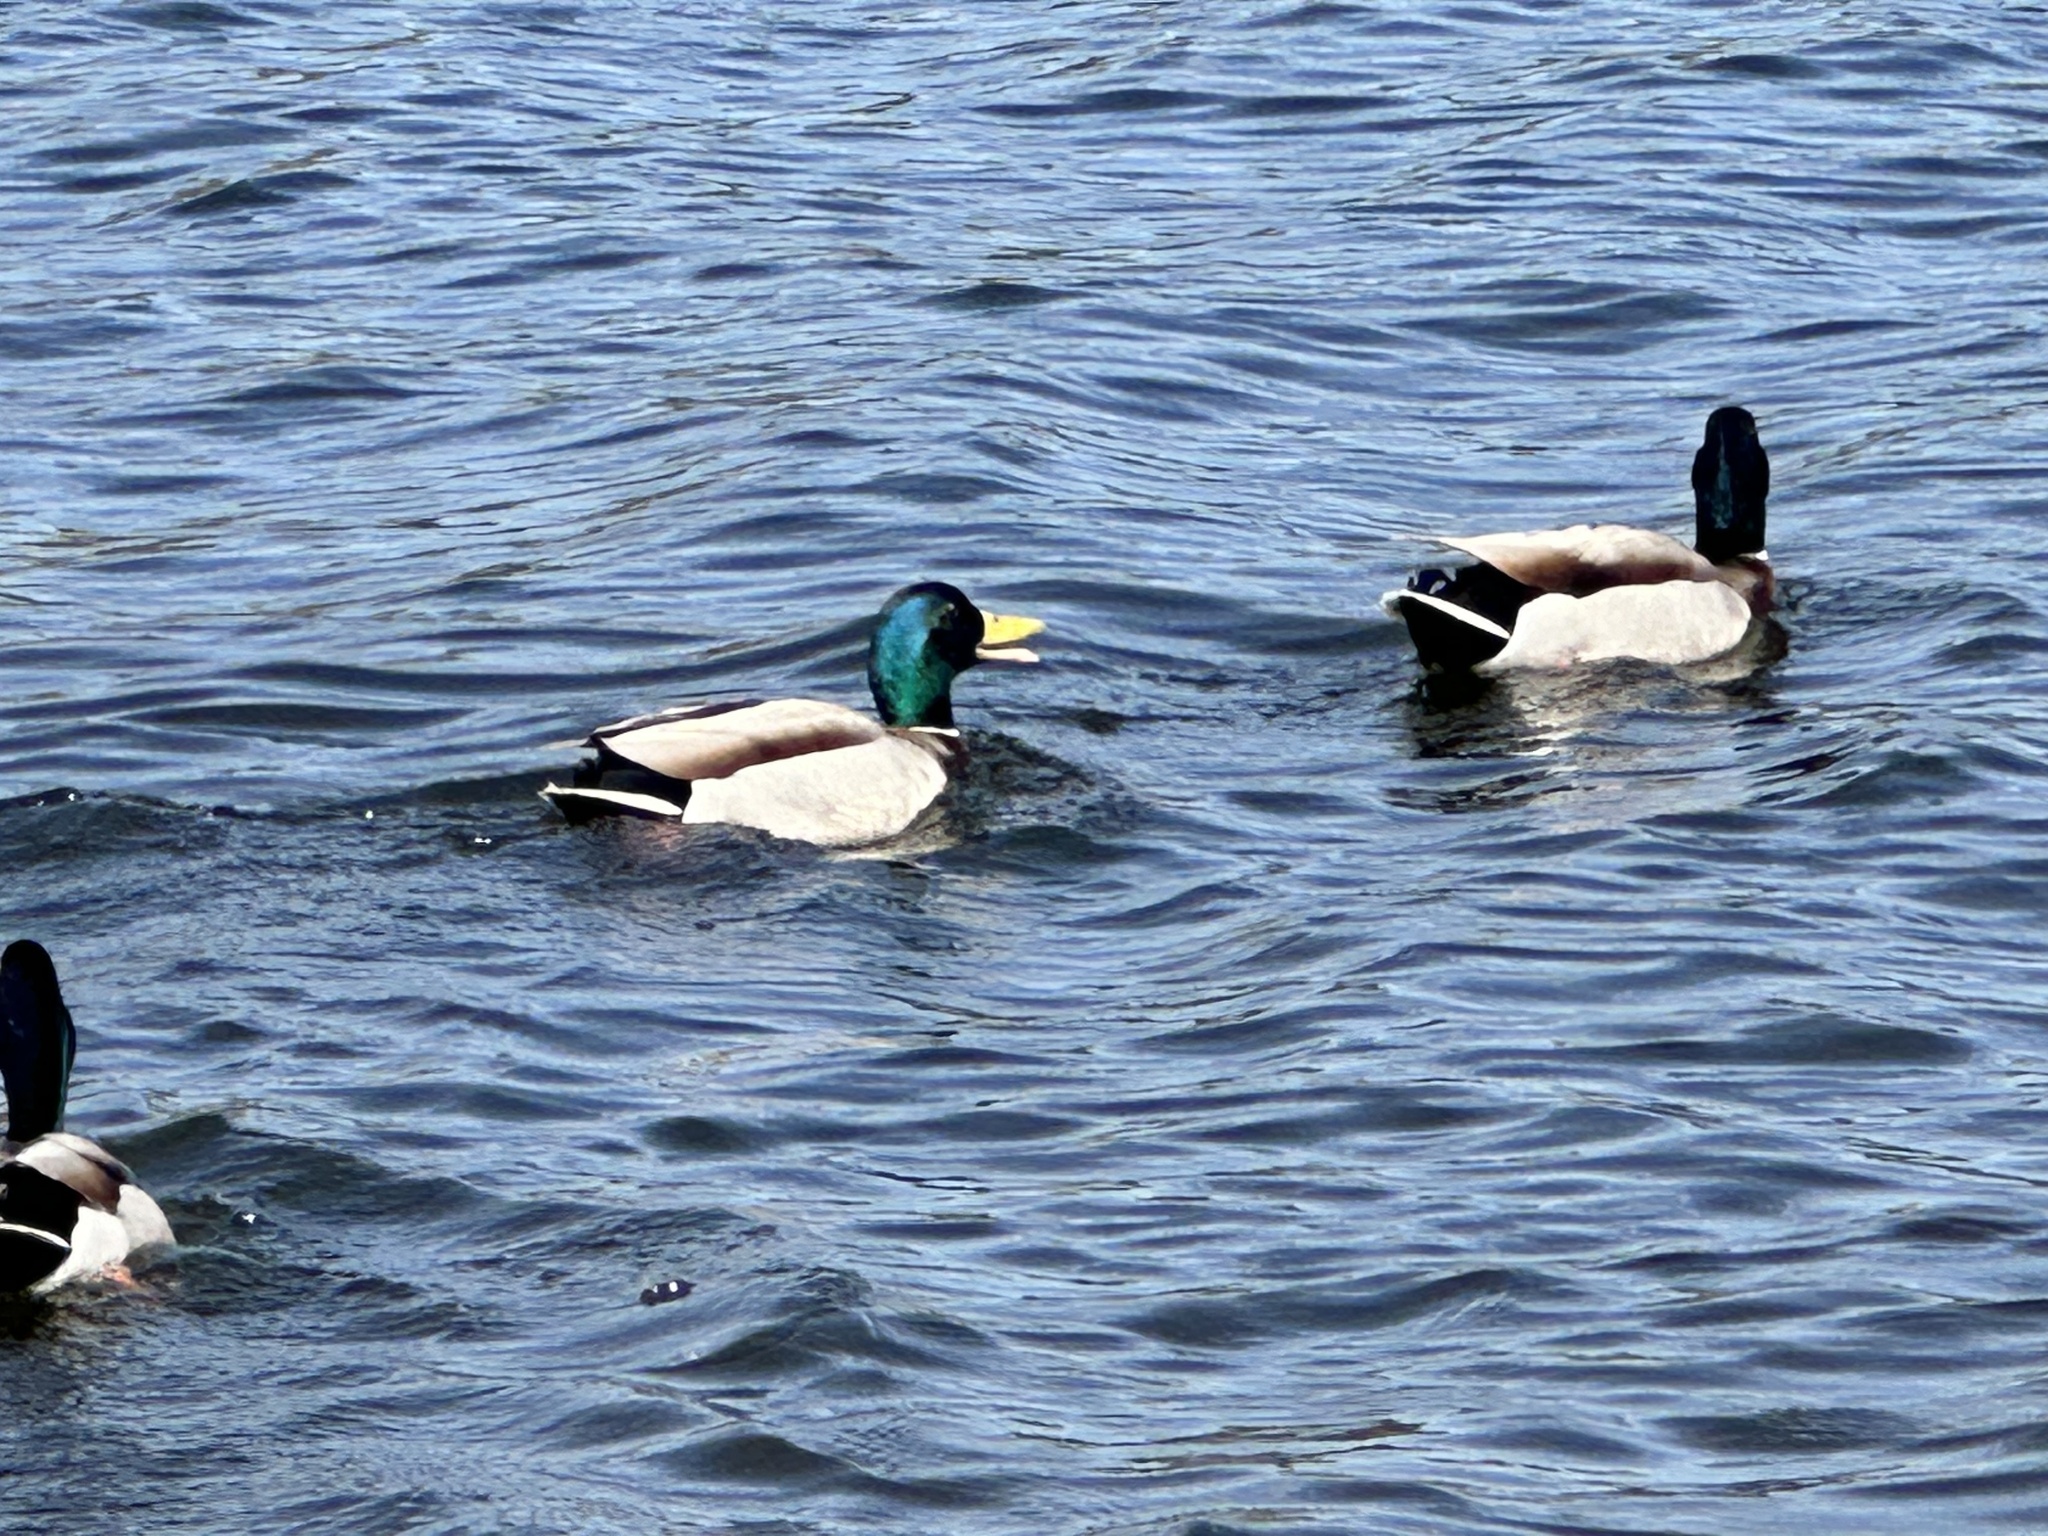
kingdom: Animalia
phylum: Chordata
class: Aves
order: Anseriformes
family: Anatidae
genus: Anas
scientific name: Anas platyrhynchos
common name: Mallard
